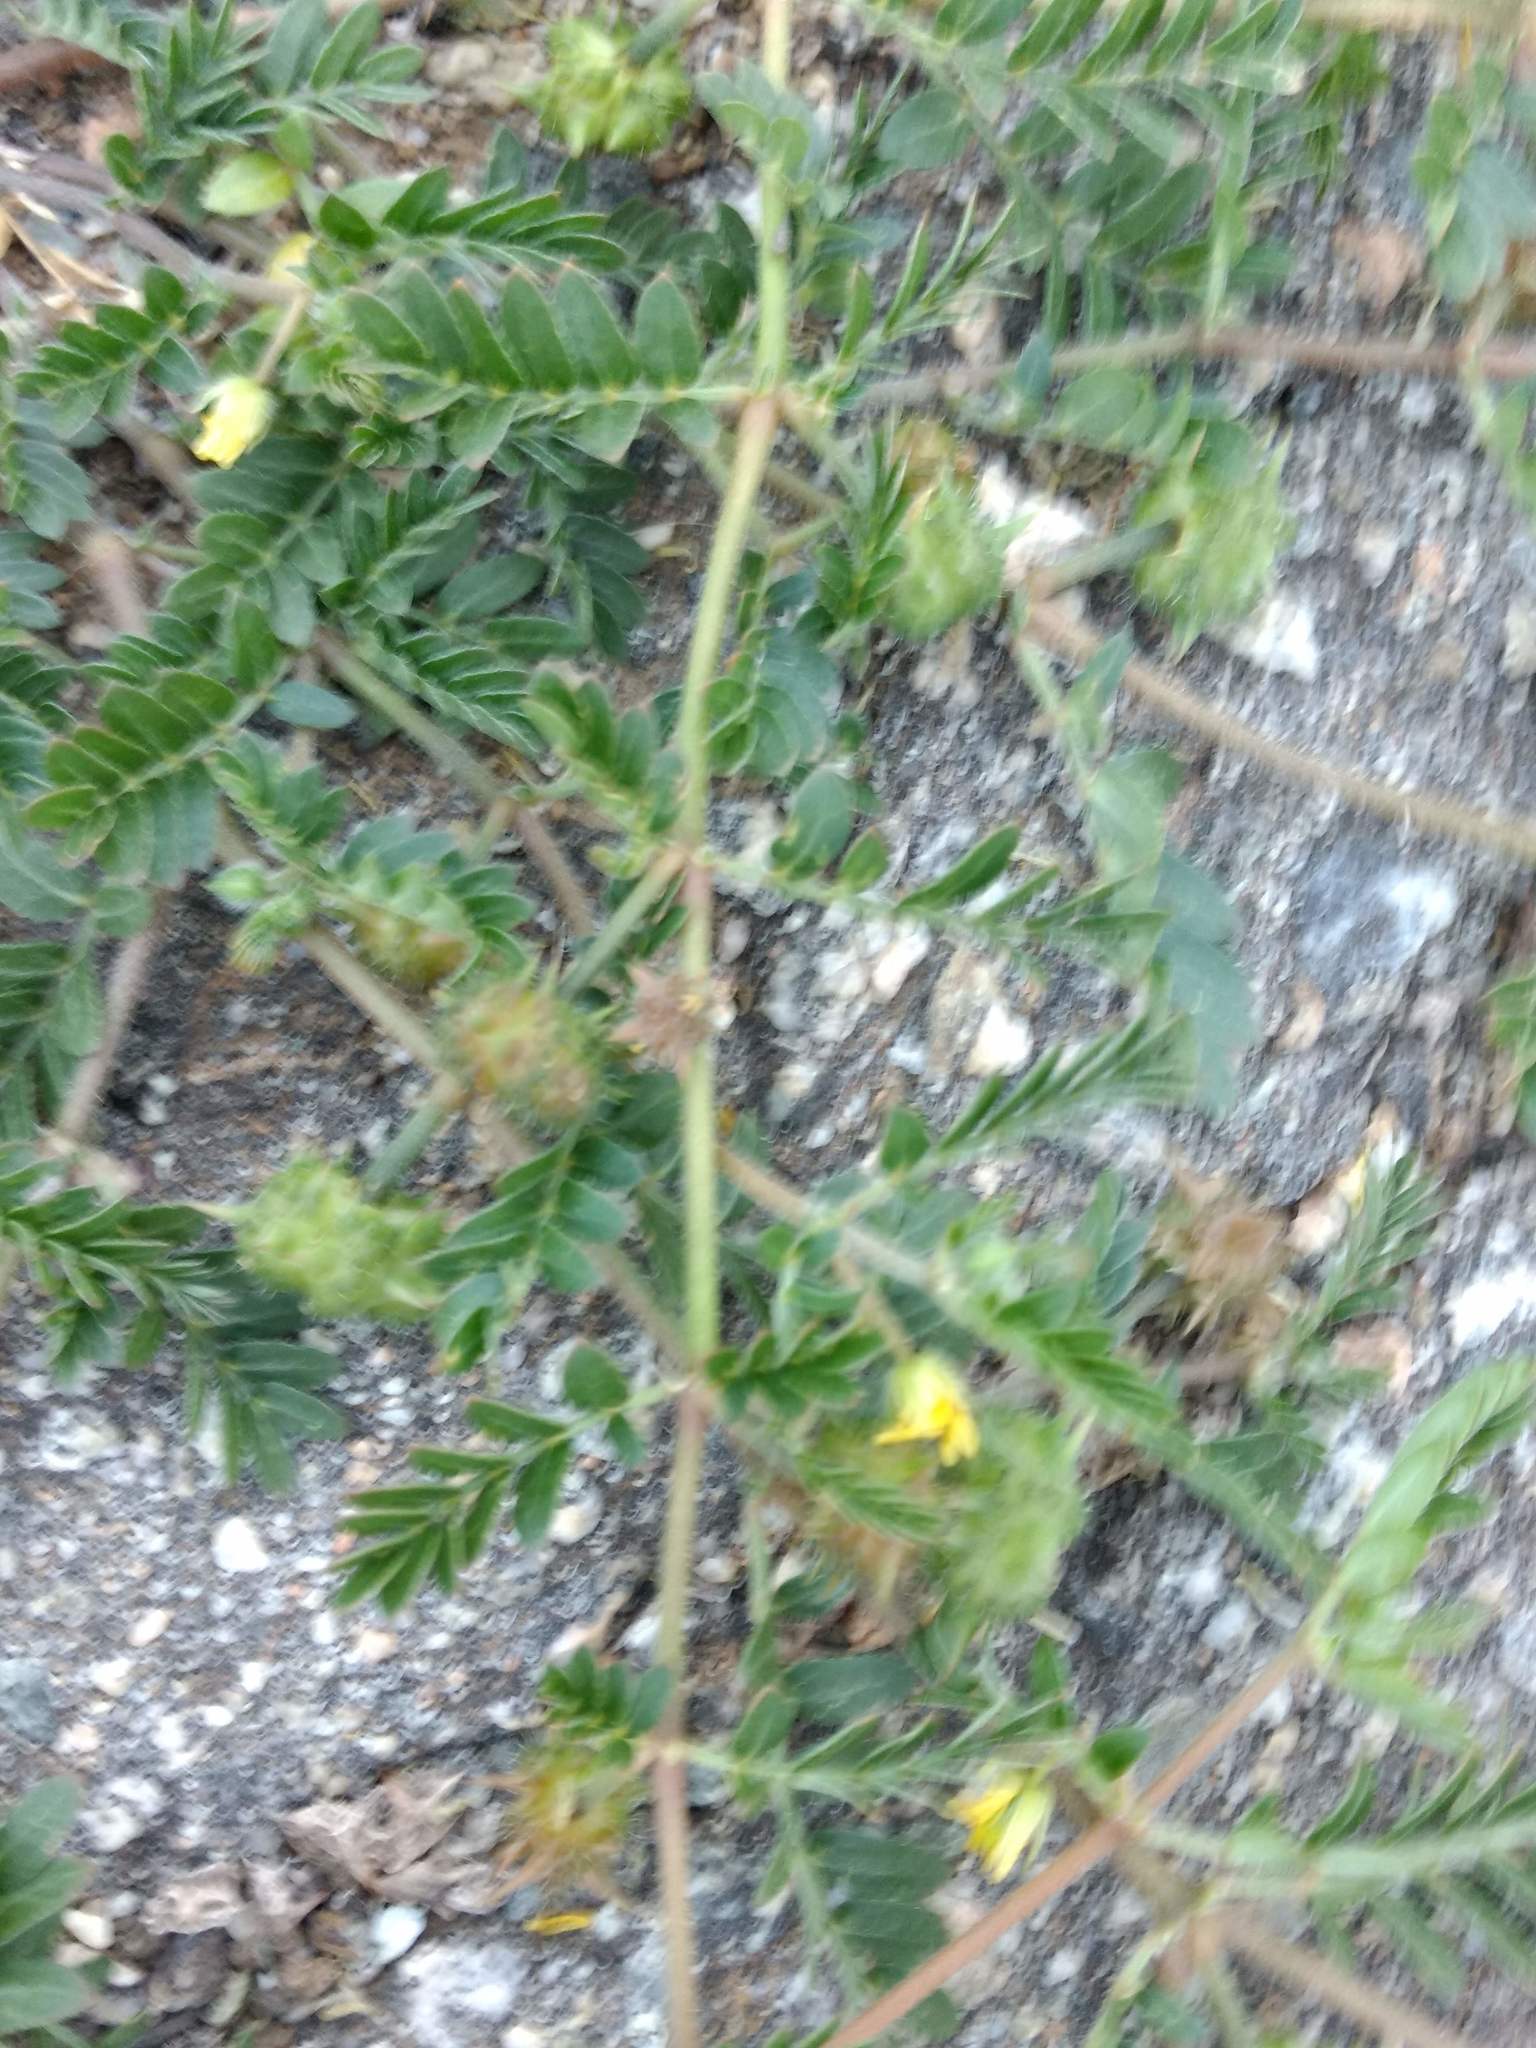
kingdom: Plantae
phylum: Tracheophyta
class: Magnoliopsida
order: Zygophyllales
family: Zygophyllaceae
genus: Tribulus
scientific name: Tribulus terrestris
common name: Puncturevine
